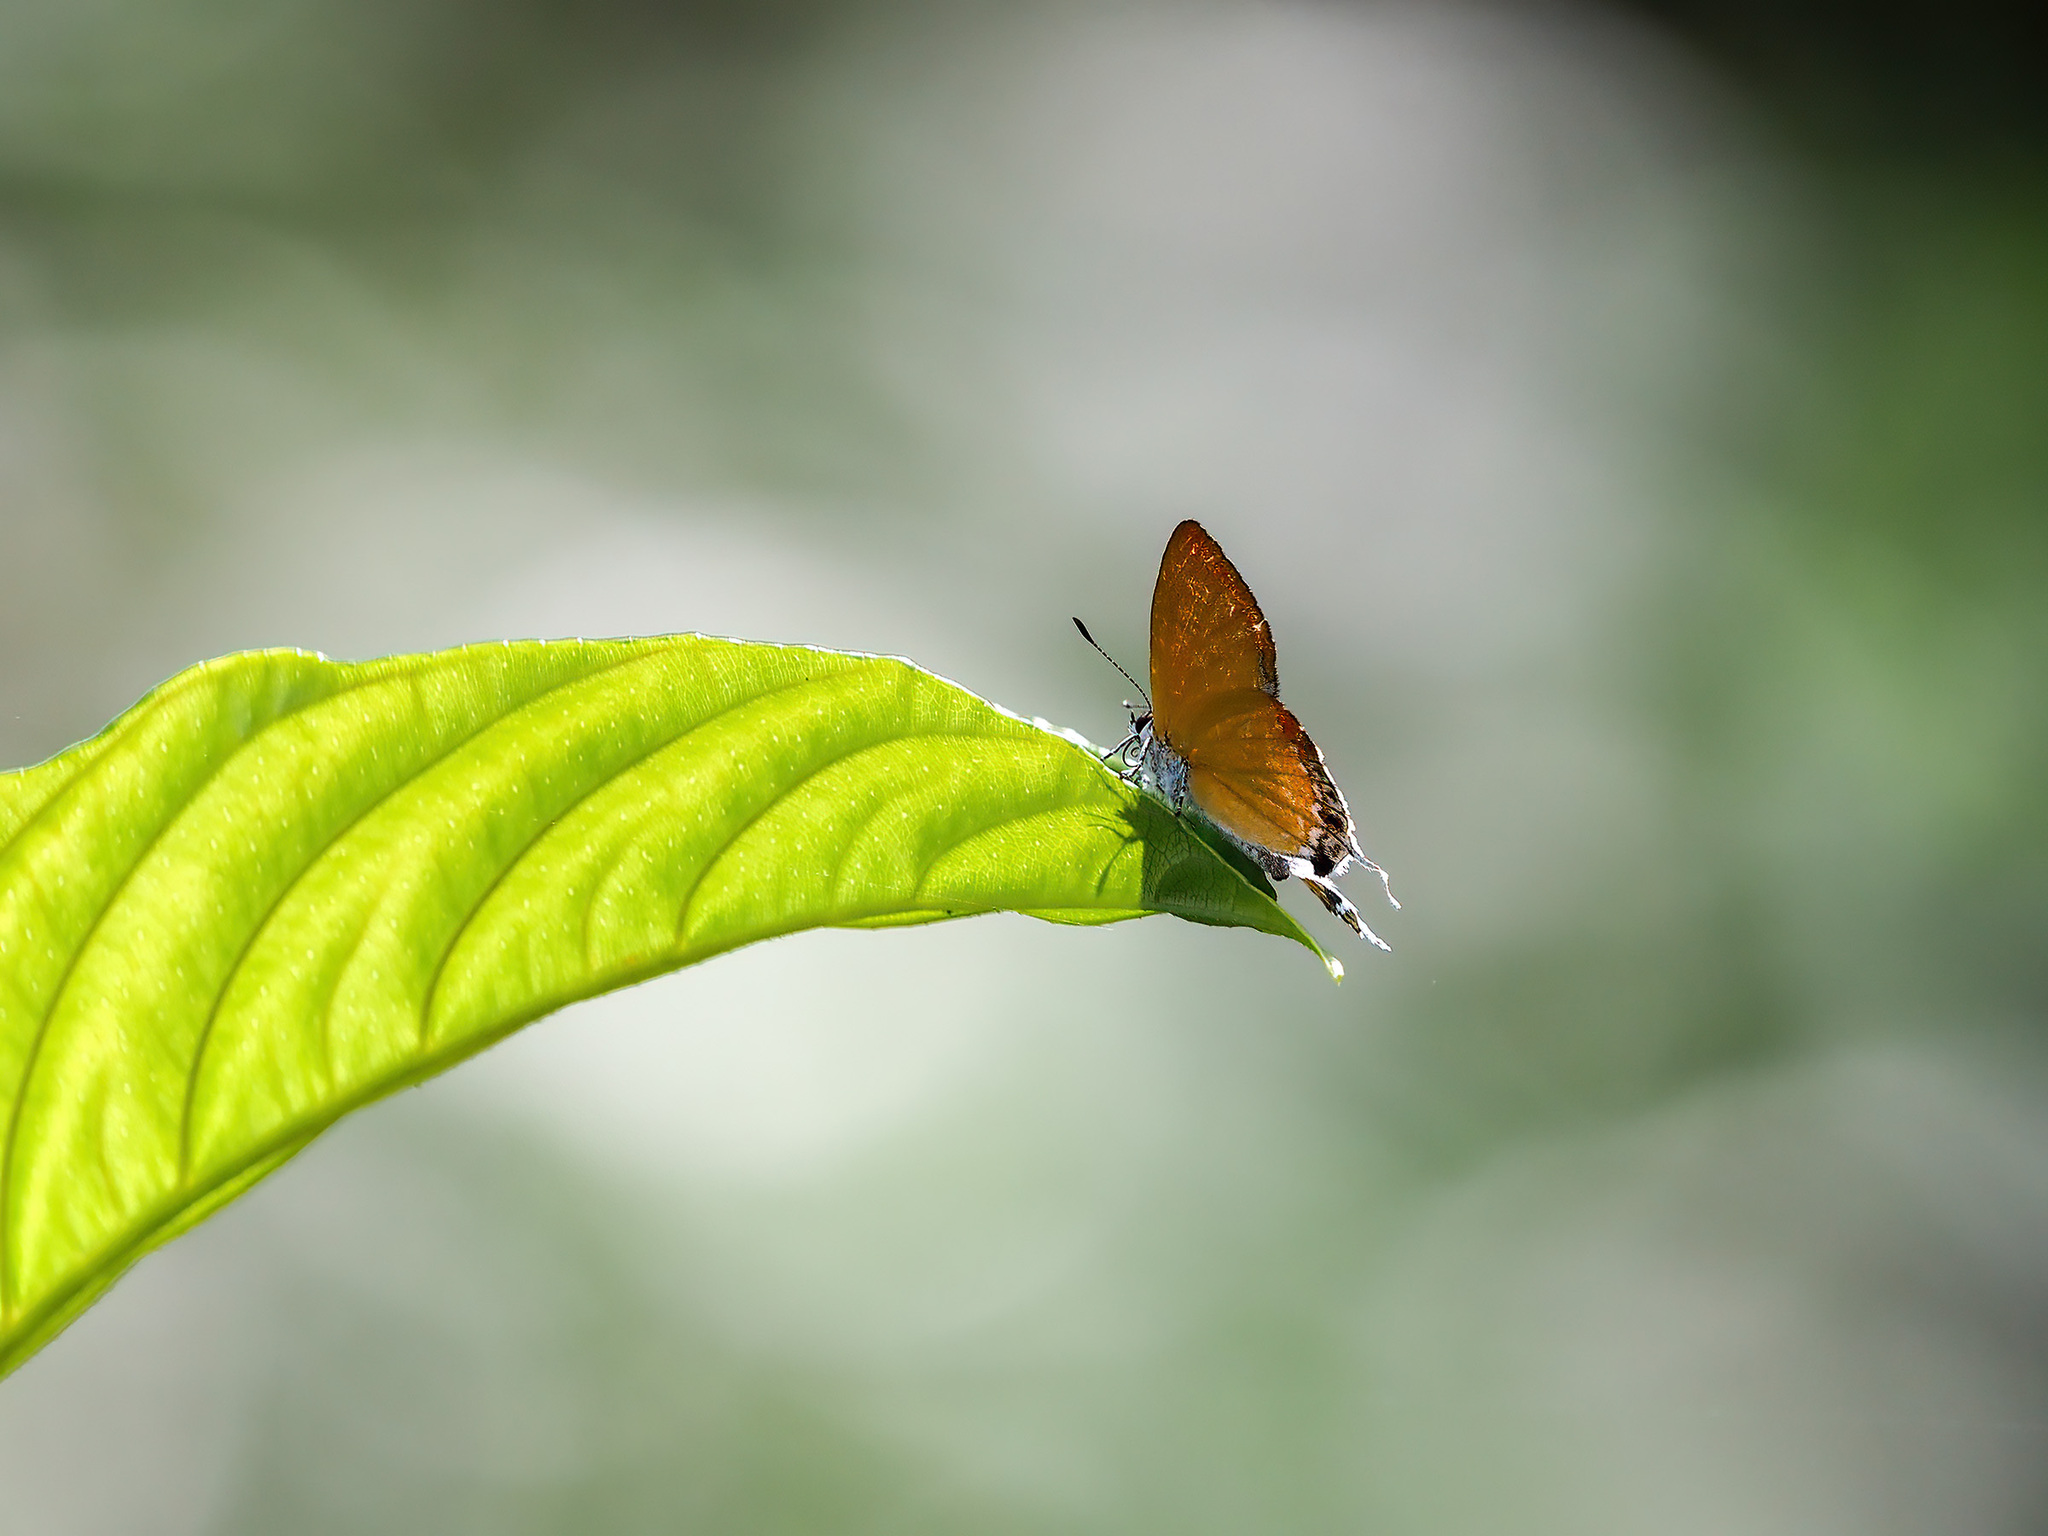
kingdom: Animalia
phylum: Arthropoda
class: Insecta
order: Lepidoptera
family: Lycaenidae
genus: Heliophorus
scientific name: Heliophorus
